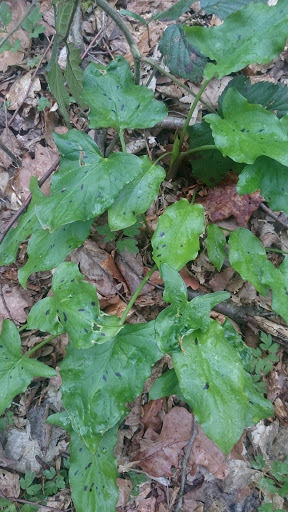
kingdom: Plantae
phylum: Tracheophyta
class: Liliopsida
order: Alismatales
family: Araceae
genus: Arum
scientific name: Arum maculatum
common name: Lords-and-ladies
